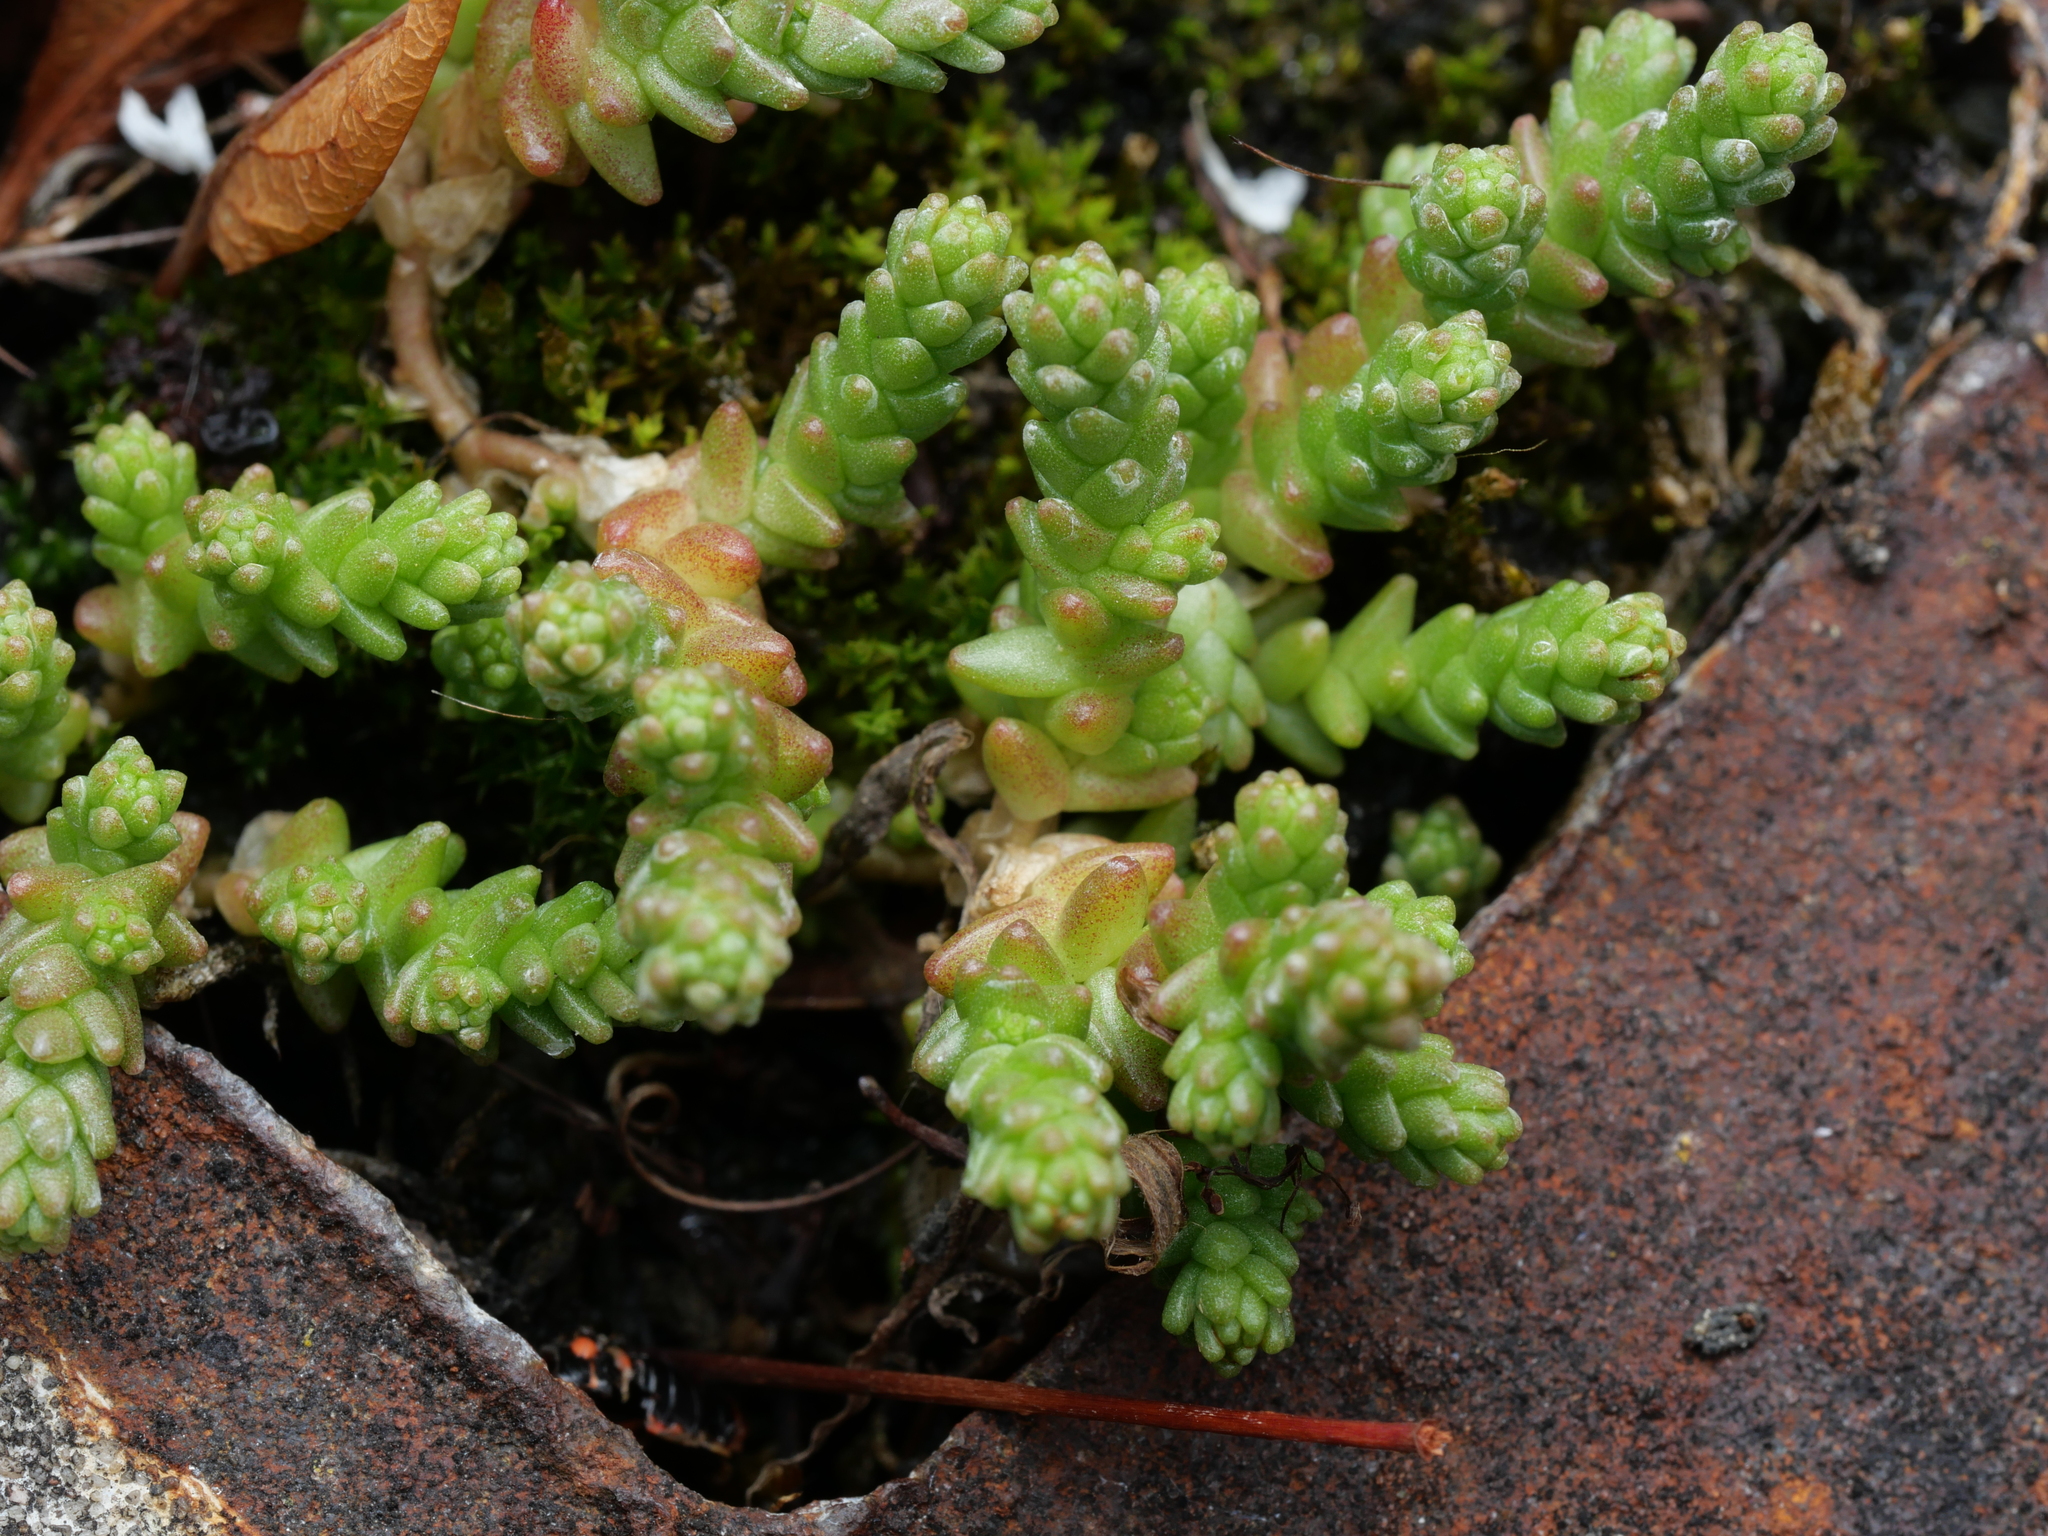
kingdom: Plantae
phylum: Tracheophyta
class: Magnoliopsida
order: Saxifragales
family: Crassulaceae
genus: Sedum
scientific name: Sedum acre
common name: Biting stonecrop
